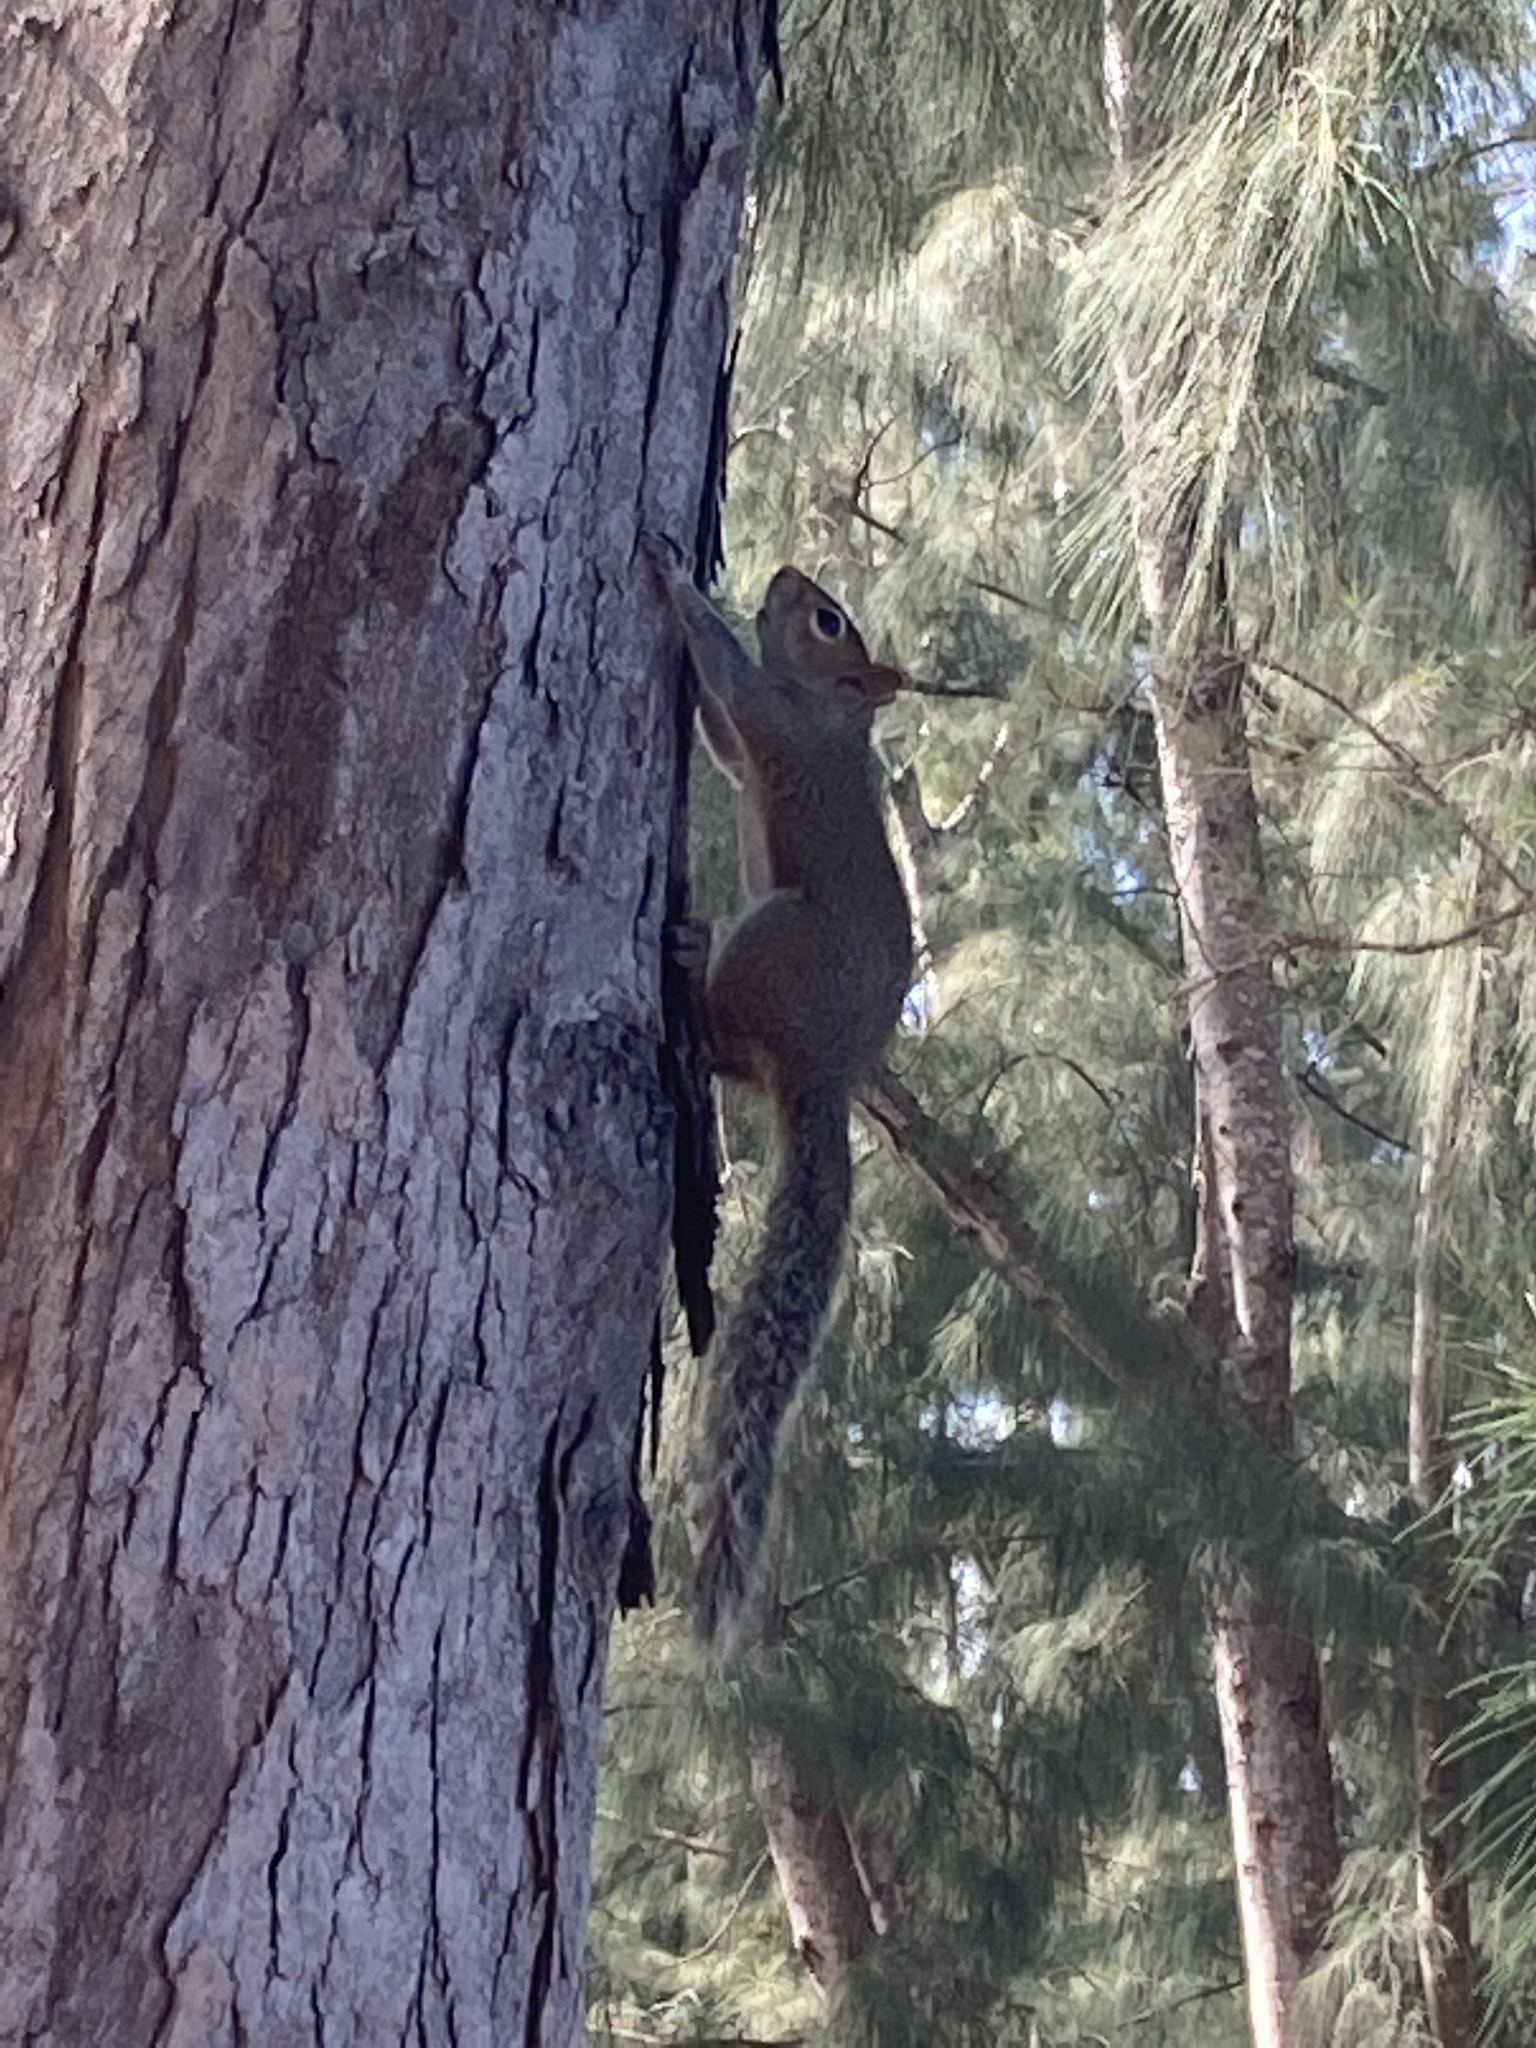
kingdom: Animalia
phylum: Chordata
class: Mammalia
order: Rodentia
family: Sciuridae
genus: Sciurus
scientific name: Sciurus carolinensis
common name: Eastern gray squirrel
